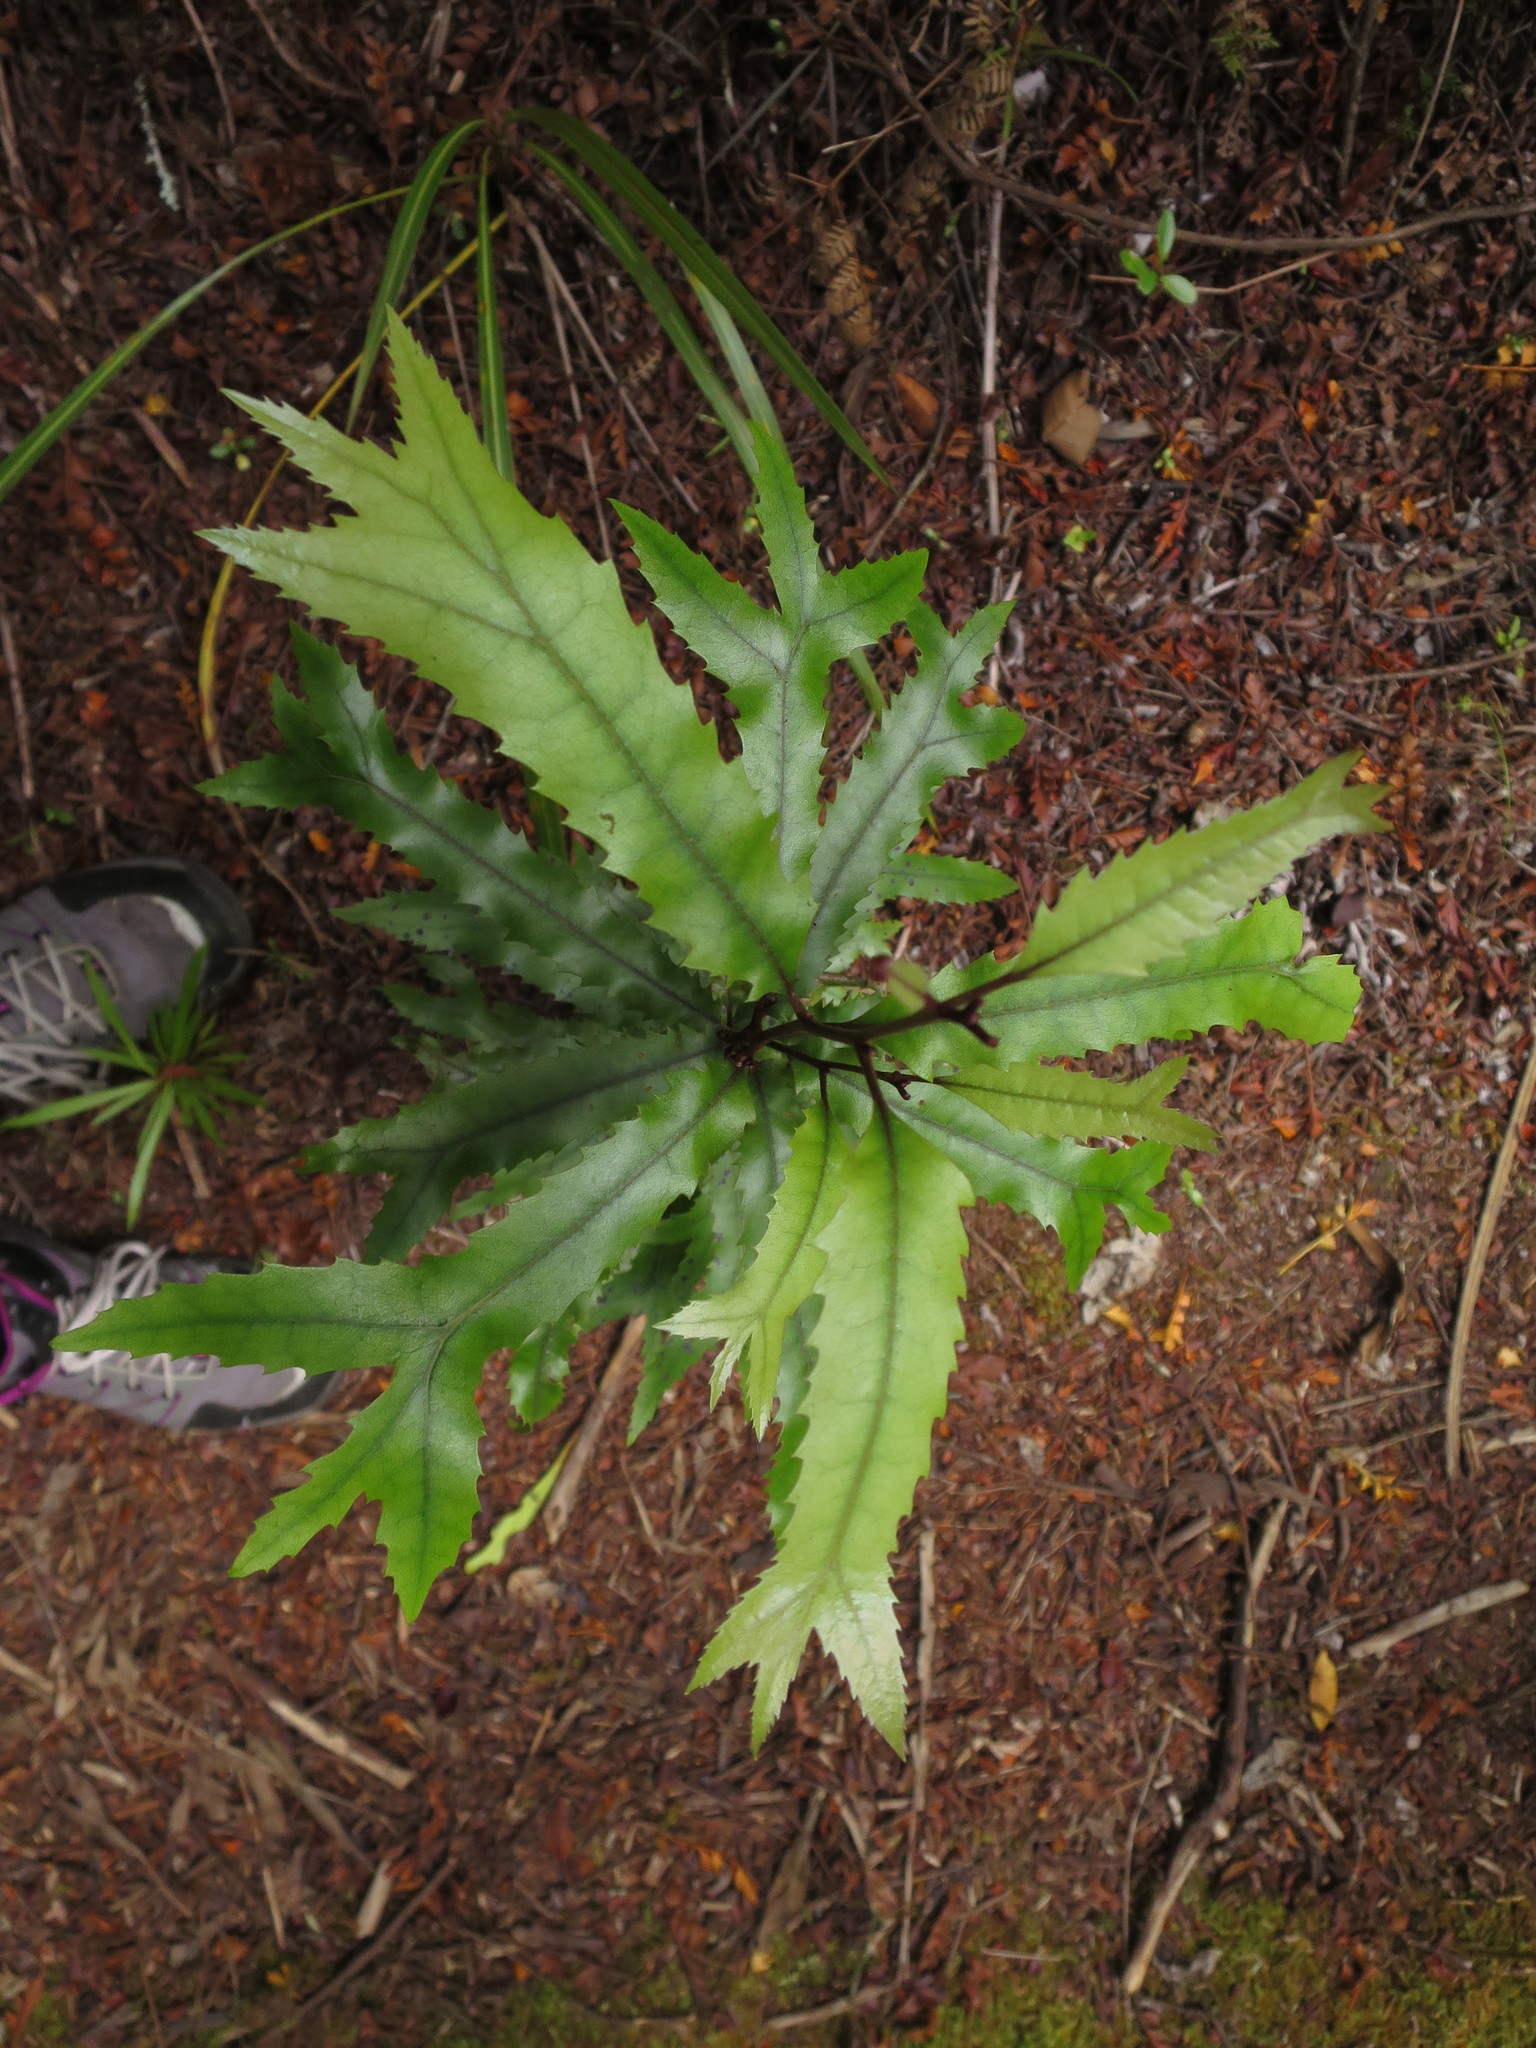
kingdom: Plantae
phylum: Tracheophyta
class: Magnoliopsida
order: Proteales
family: Proteaceae
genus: Knightia
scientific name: Knightia excelsa
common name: New zealand-honeysuckle
